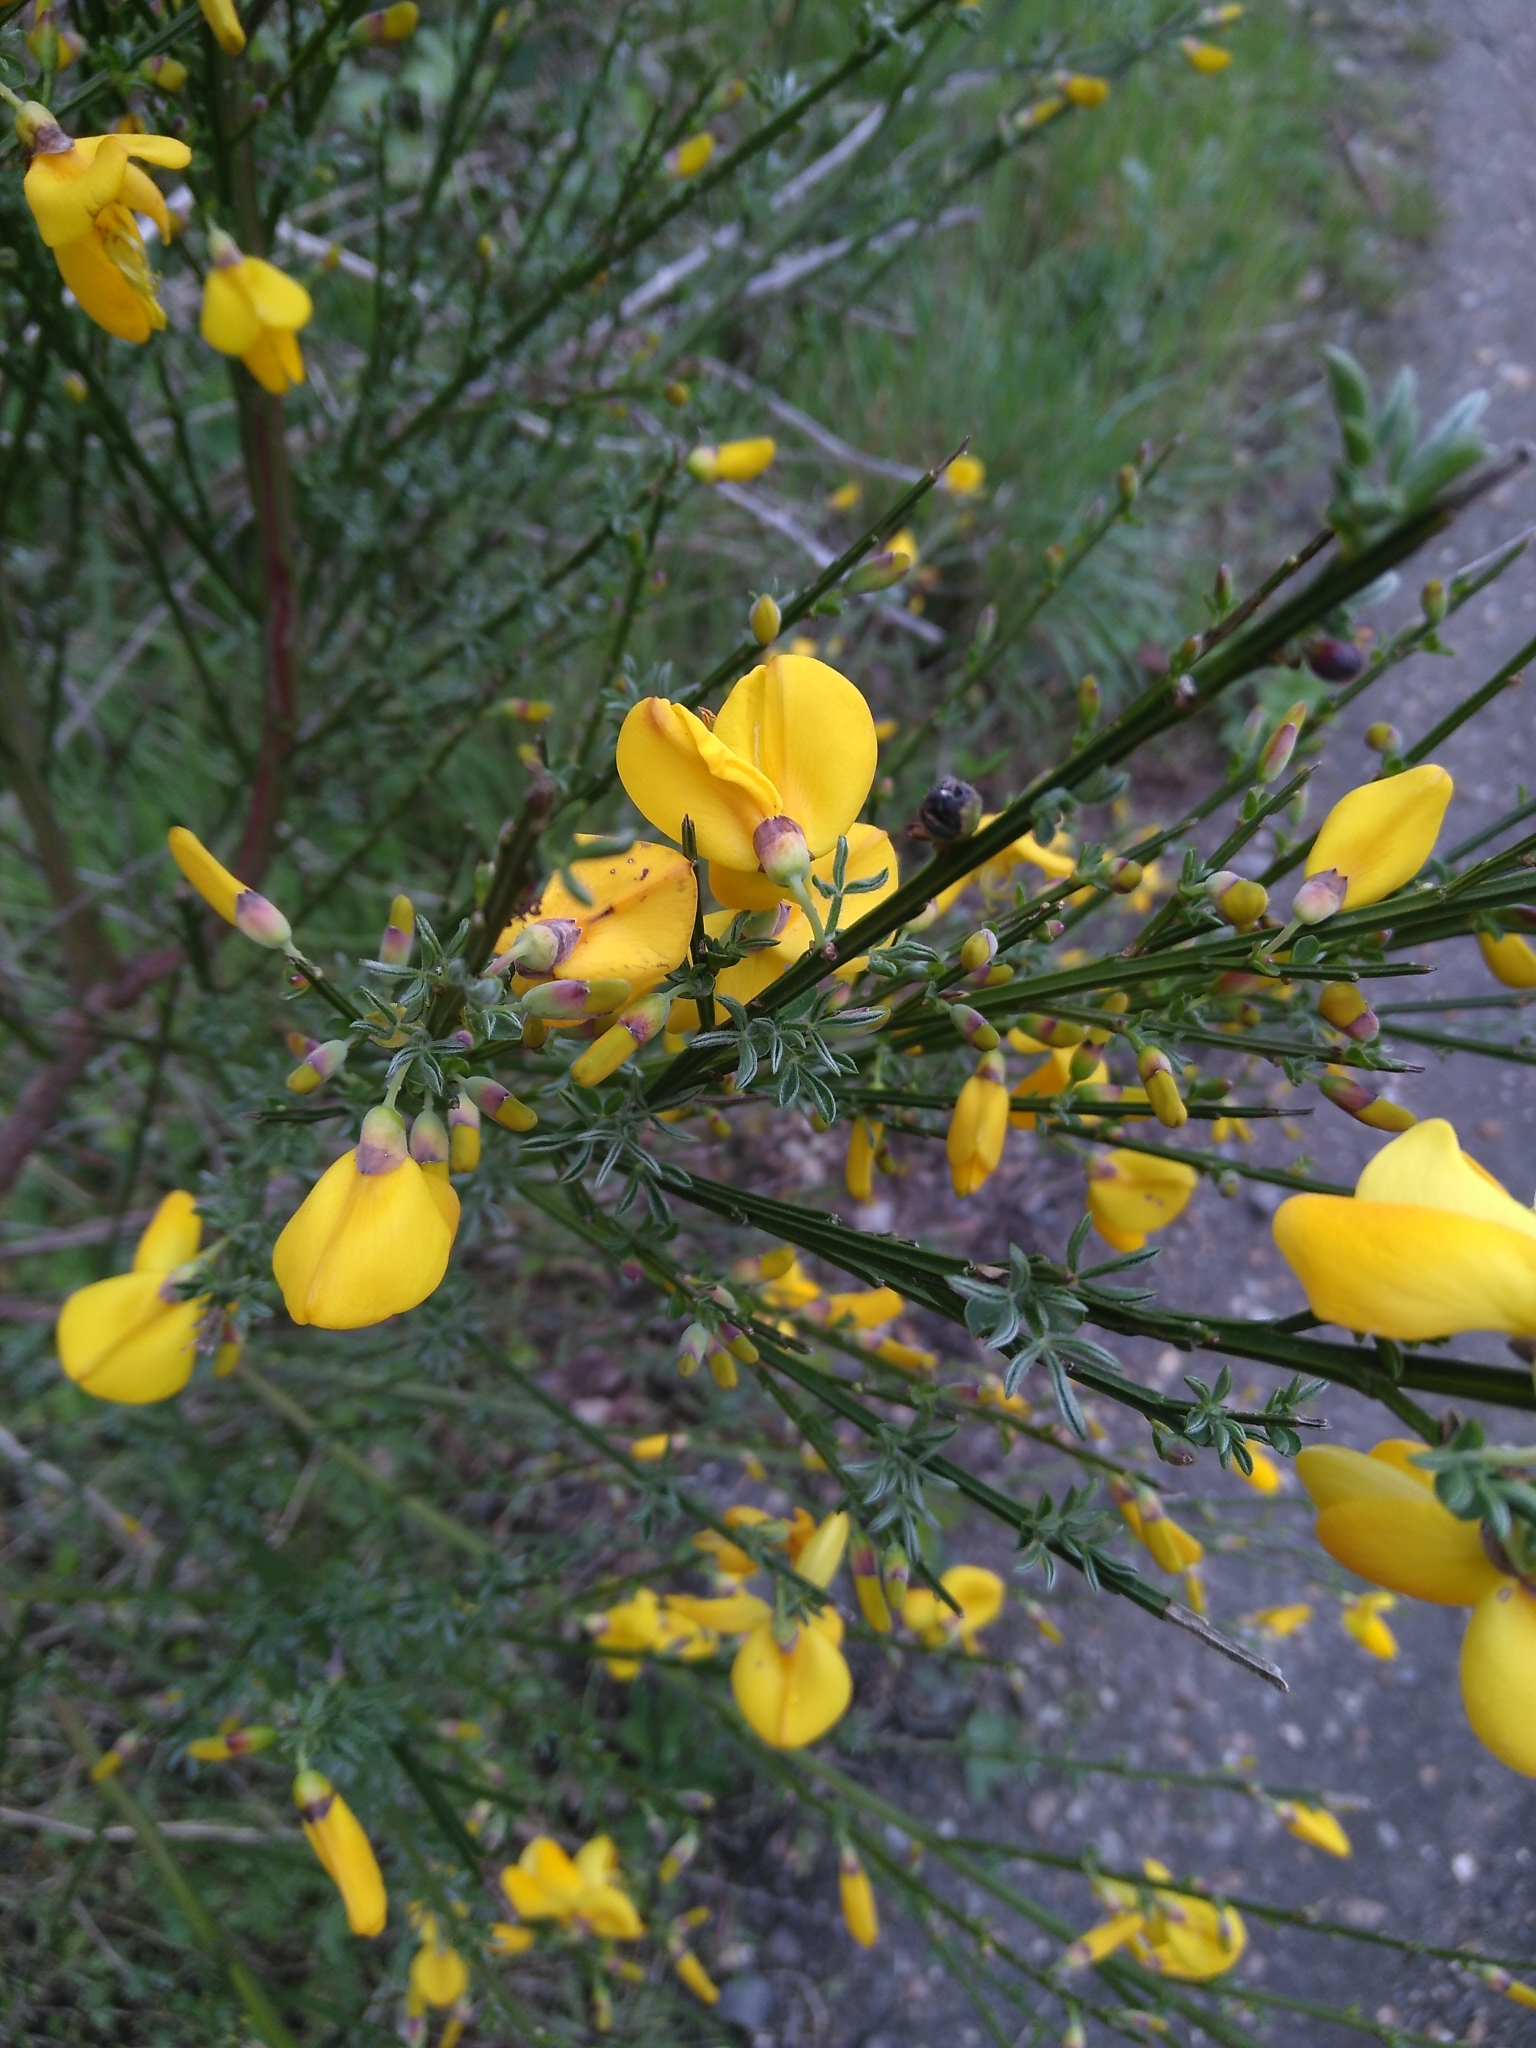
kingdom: Plantae
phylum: Tracheophyta
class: Magnoliopsida
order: Fabales
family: Fabaceae
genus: Cytisus
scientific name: Cytisus scoparius
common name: Scotch broom
